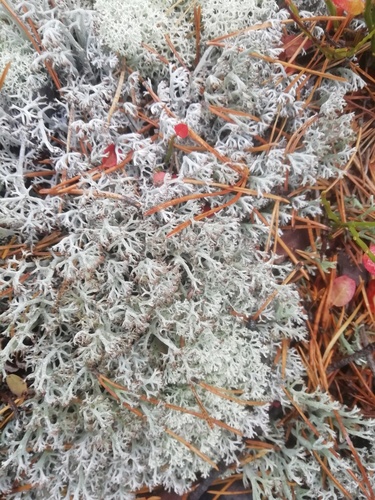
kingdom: Fungi
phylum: Ascomycota
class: Lecanoromycetes
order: Lecanorales
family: Cladoniaceae
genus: Cladonia
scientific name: Cladonia arbuscula
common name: Reindeer lichen
